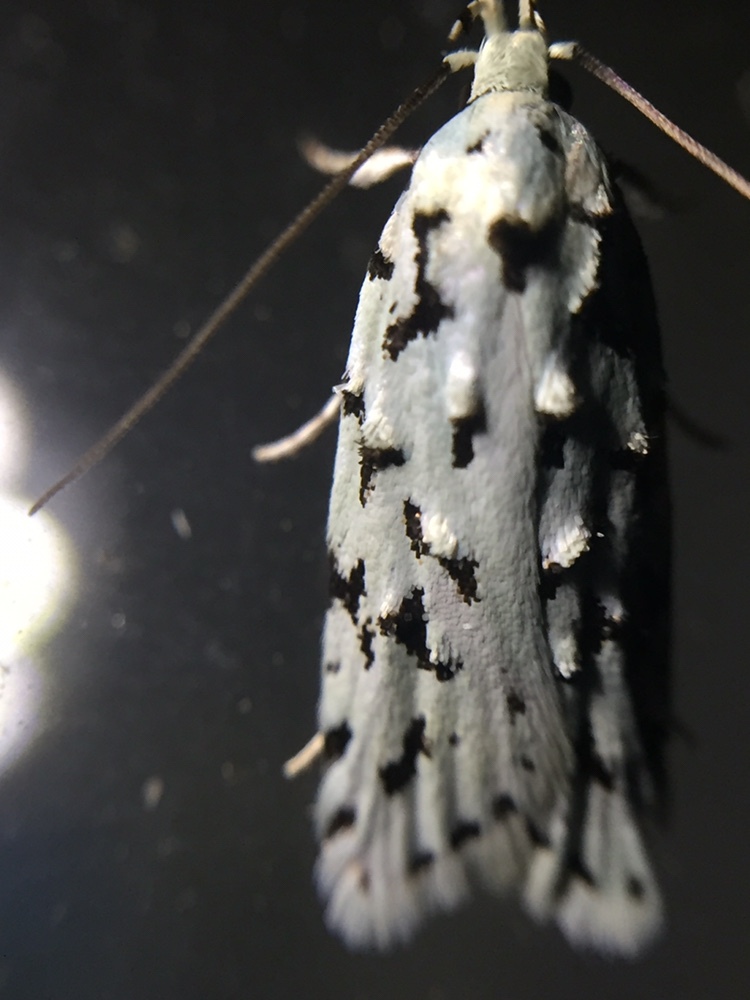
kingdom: Animalia
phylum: Arthropoda
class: Insecta
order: Lepidoptera
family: Oecophoridae
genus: Izatha
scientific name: Izatha peroneanella
